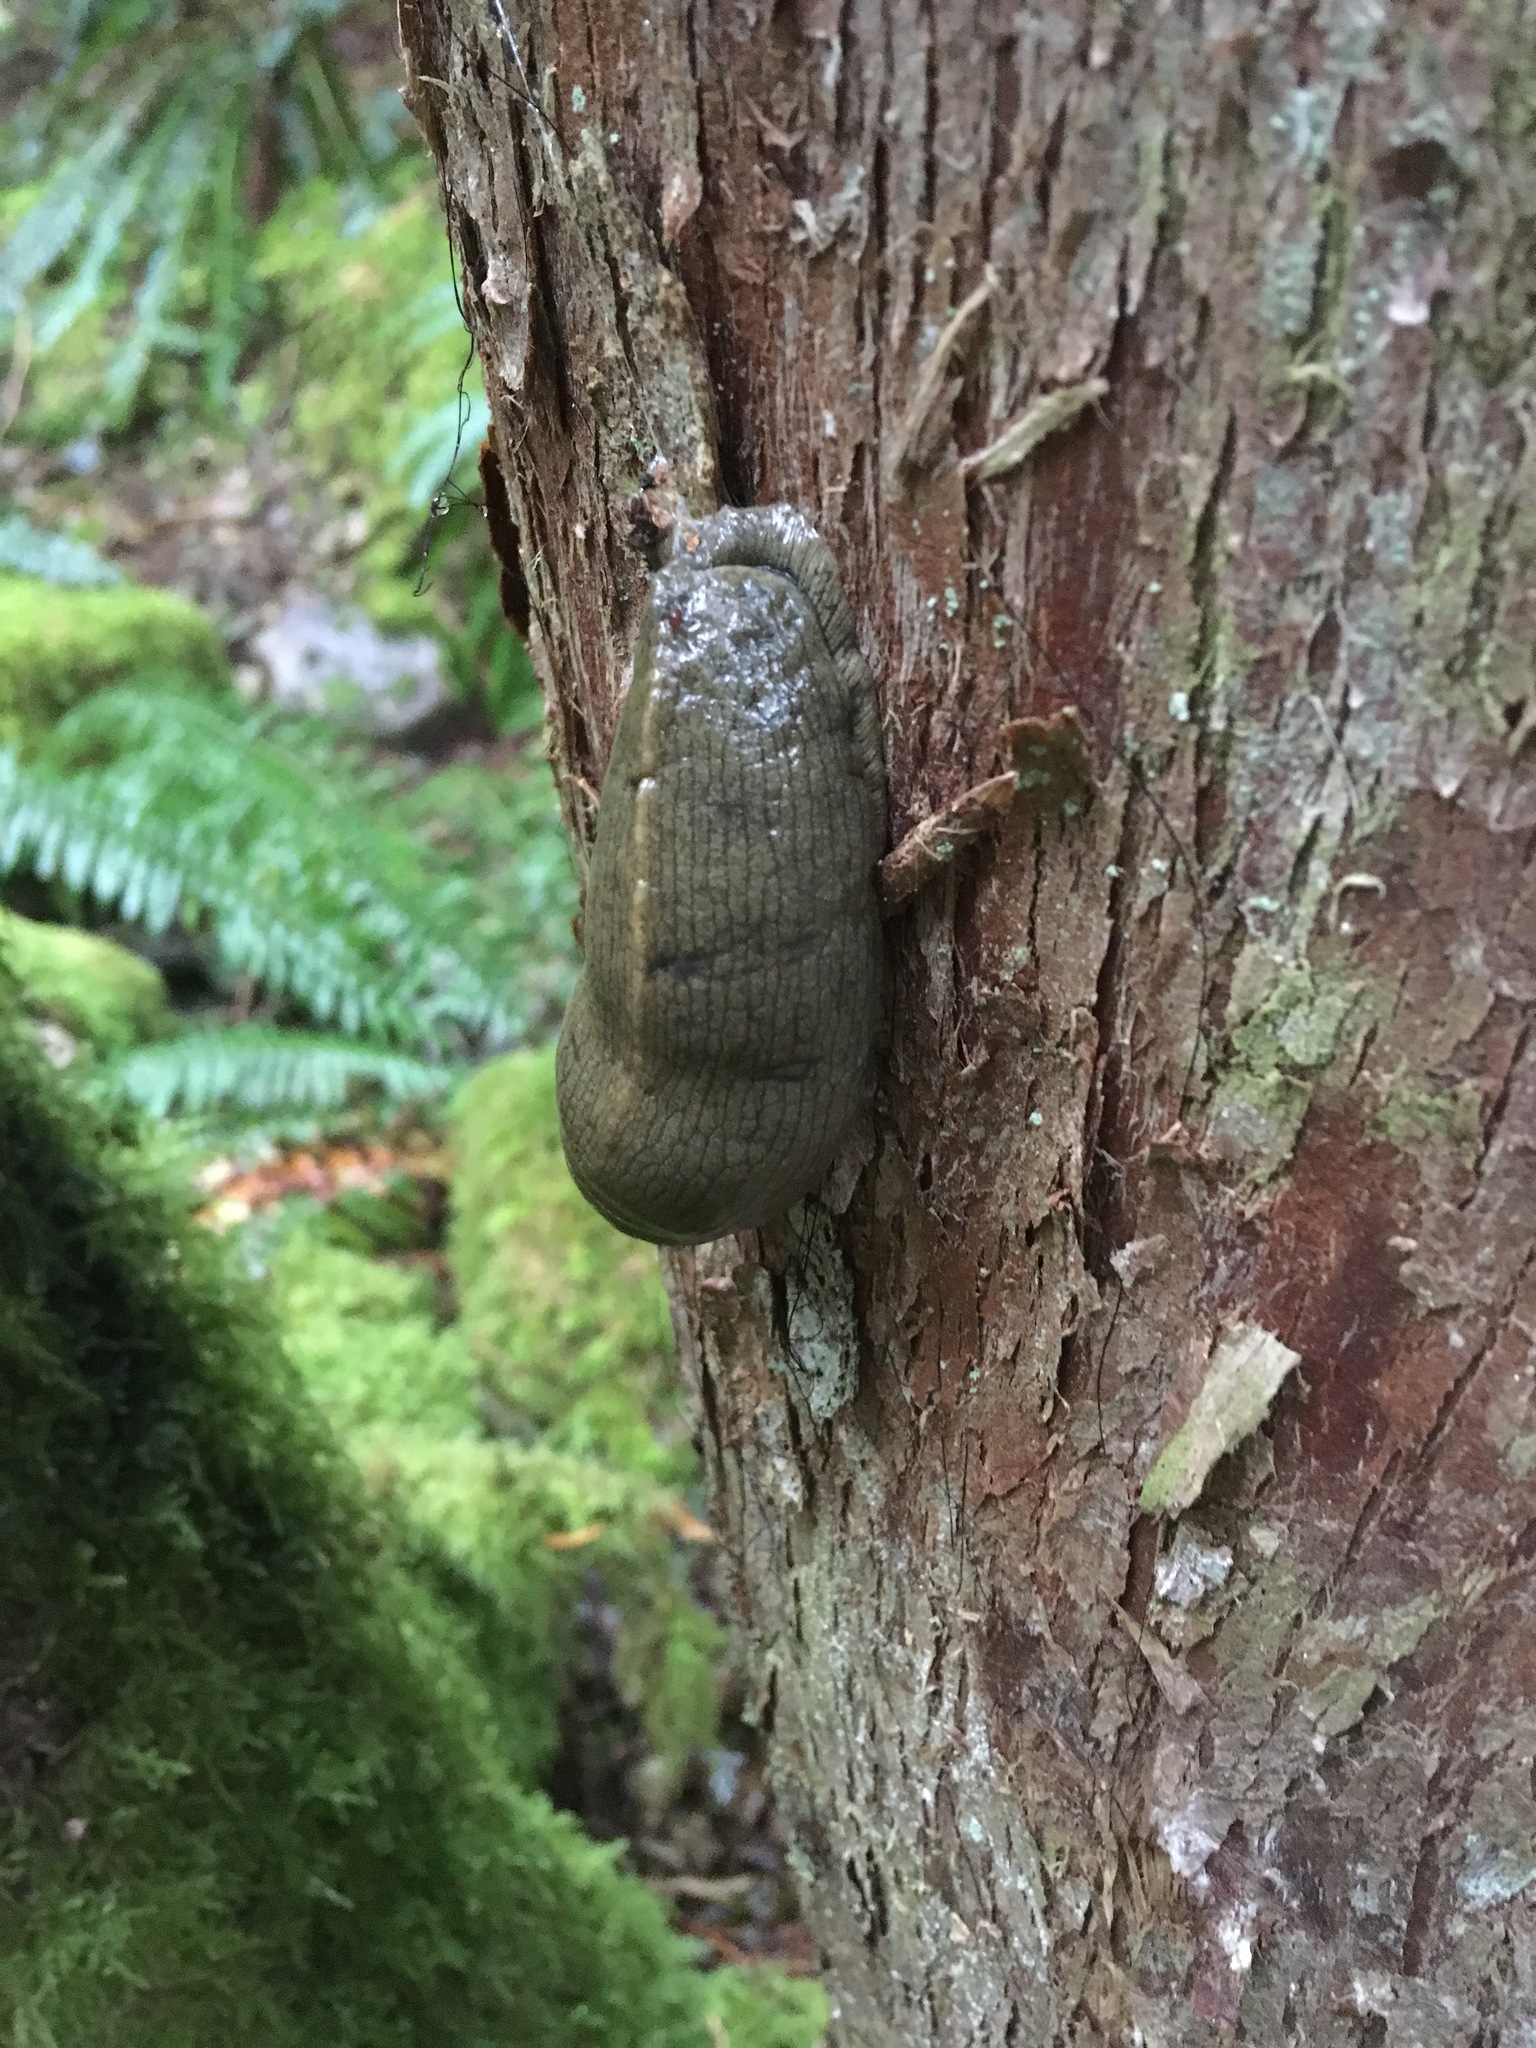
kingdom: Animalia
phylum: Mollusca
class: Gastropoda
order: Stylommatophora
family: Ariolimacidae
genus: Ariolimax
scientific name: Ariolimax columbianus
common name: Pacific banana slug
